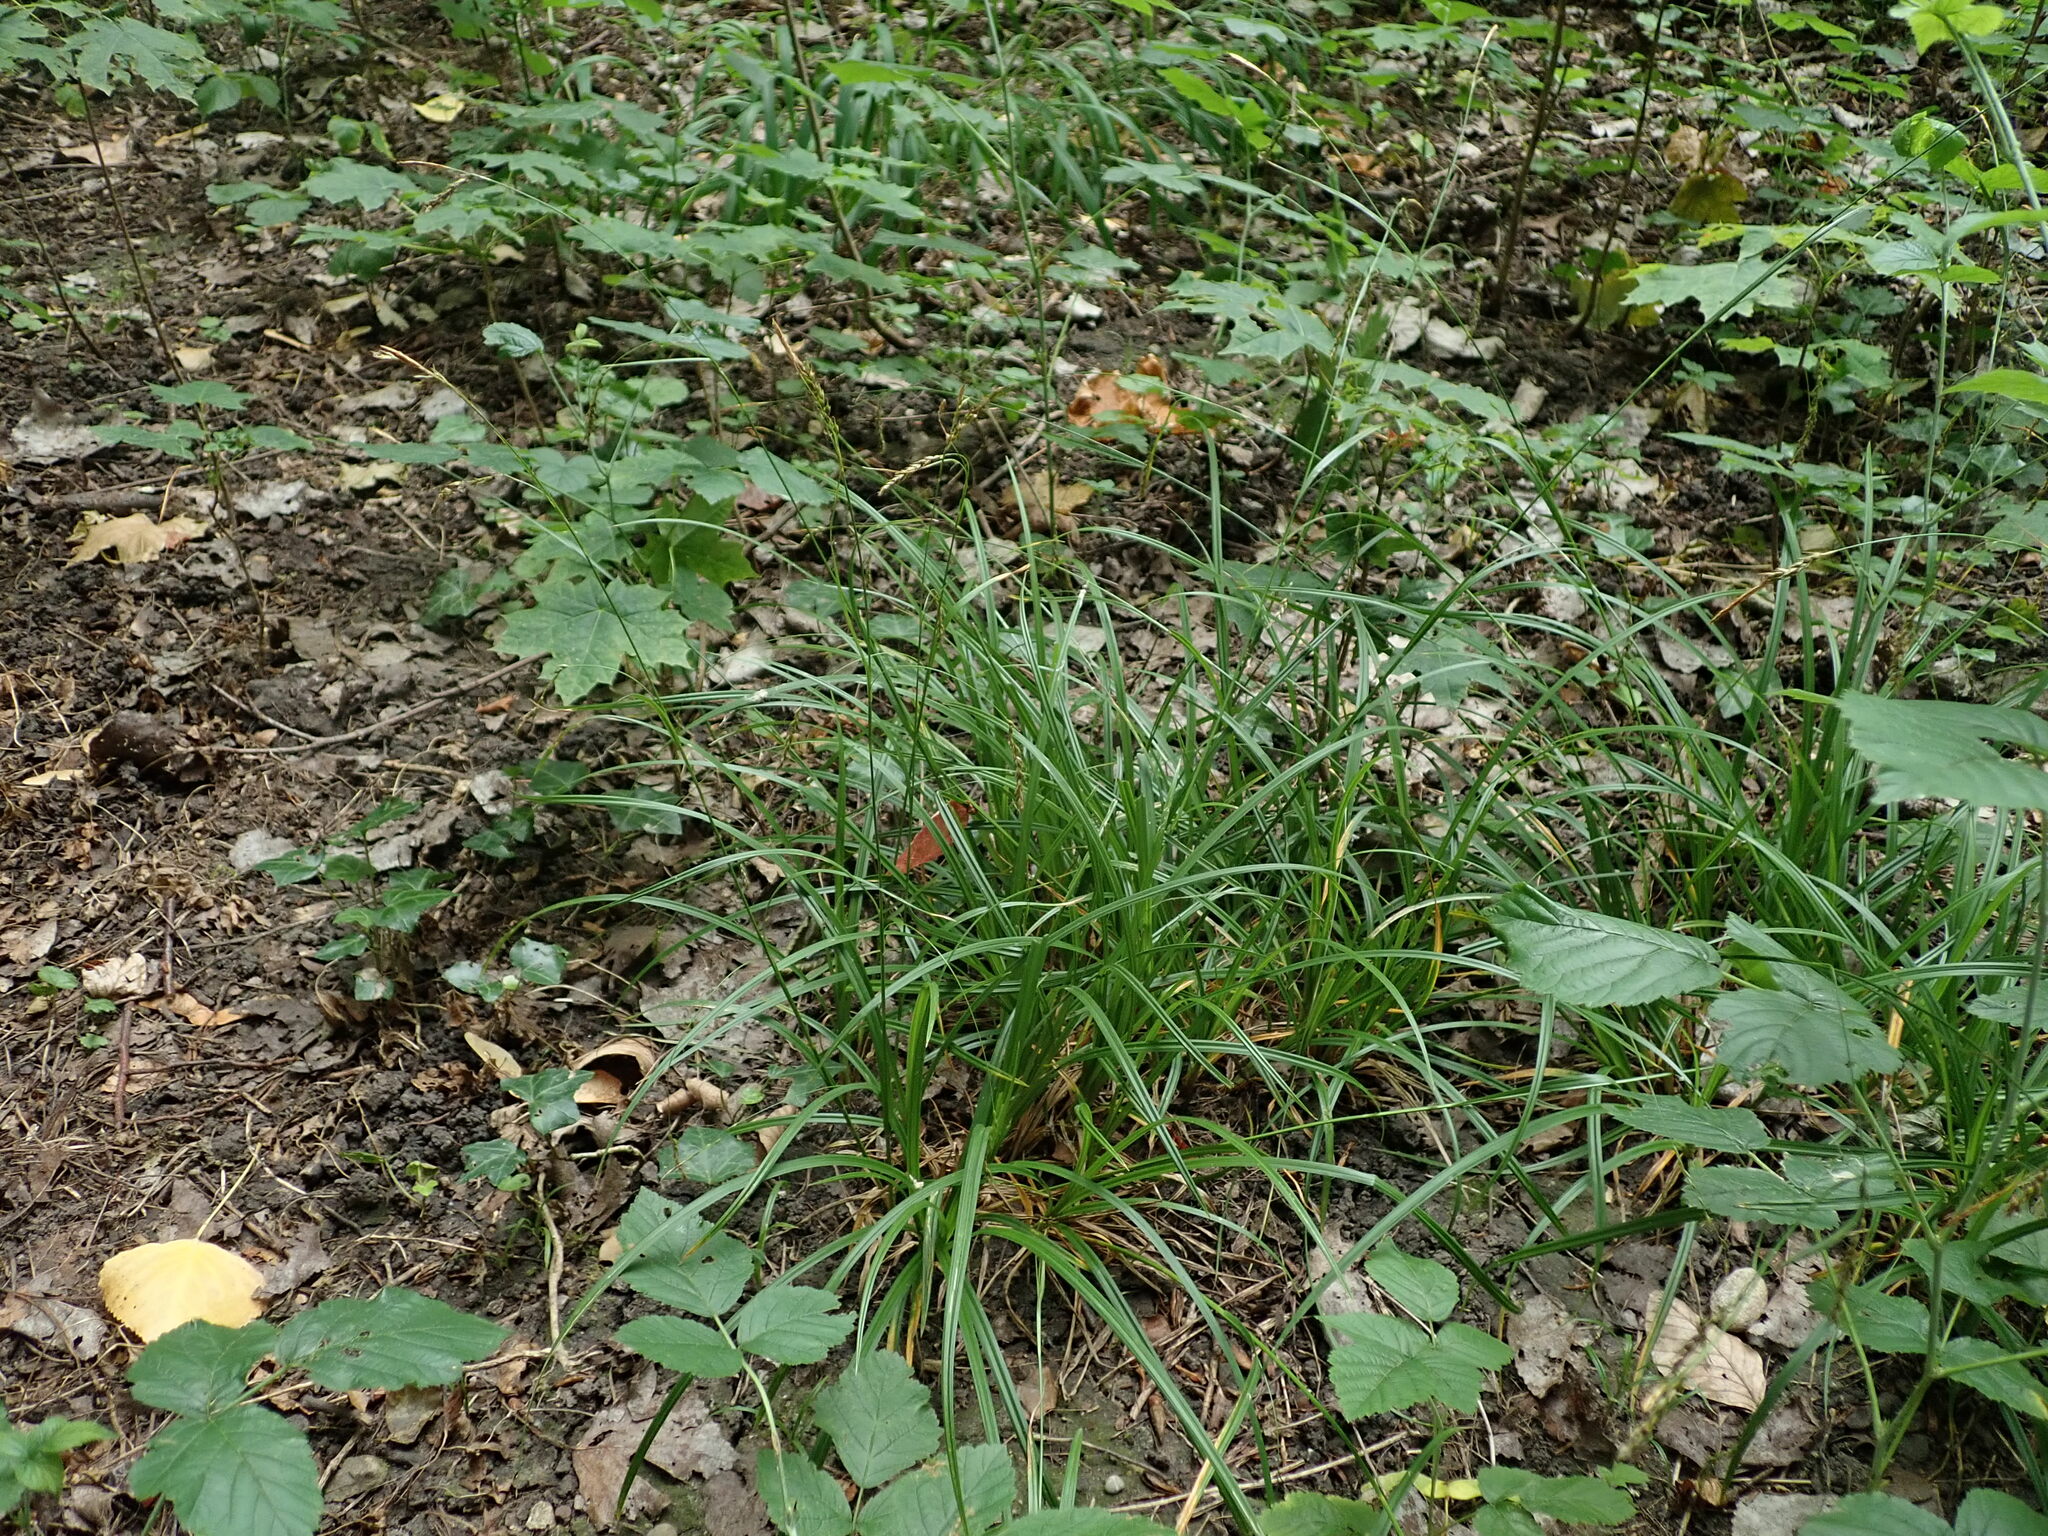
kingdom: Plantae
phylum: Tracheophyta
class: Liliopsida
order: Poales
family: Cyperaceae
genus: Carex
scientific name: Carex sylvatica
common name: Wood-sedge
